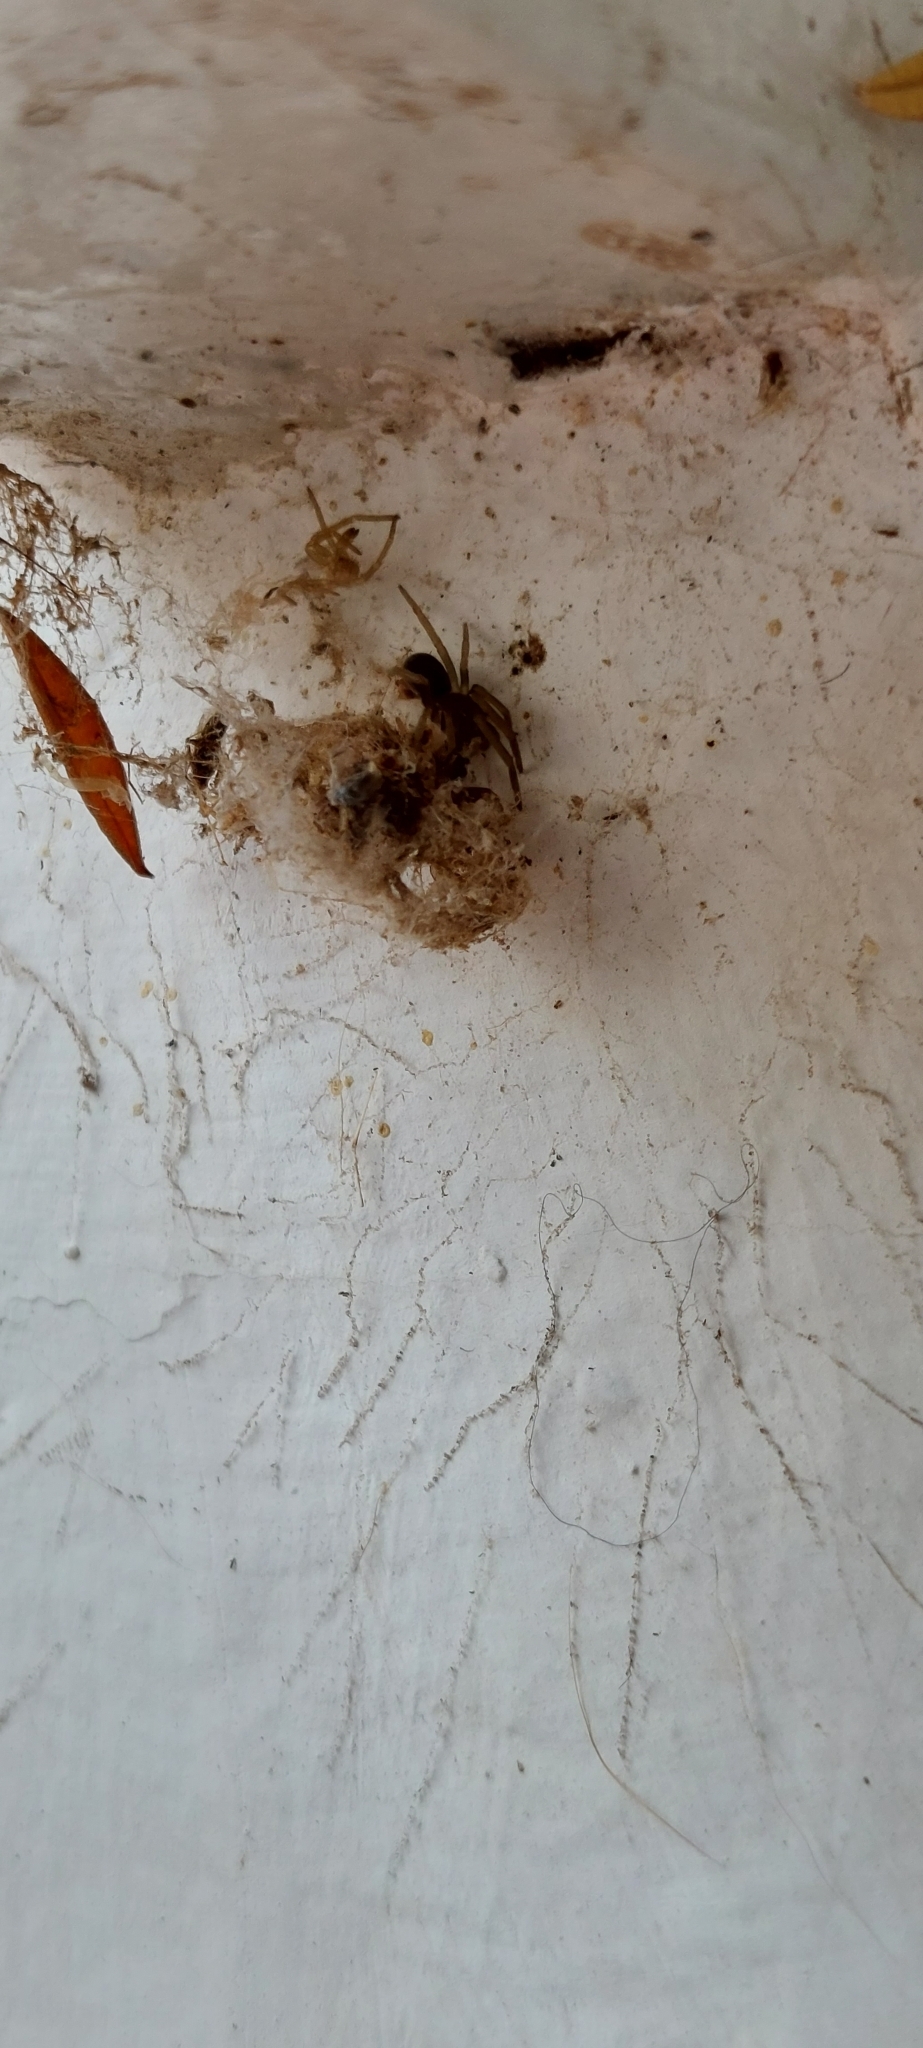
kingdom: Animalia
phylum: Arthropoda
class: Arachnida
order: Araneae
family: Filistatidae
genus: Kukulcania
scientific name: Kukulcania hibernalis
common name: Crevice weaver
